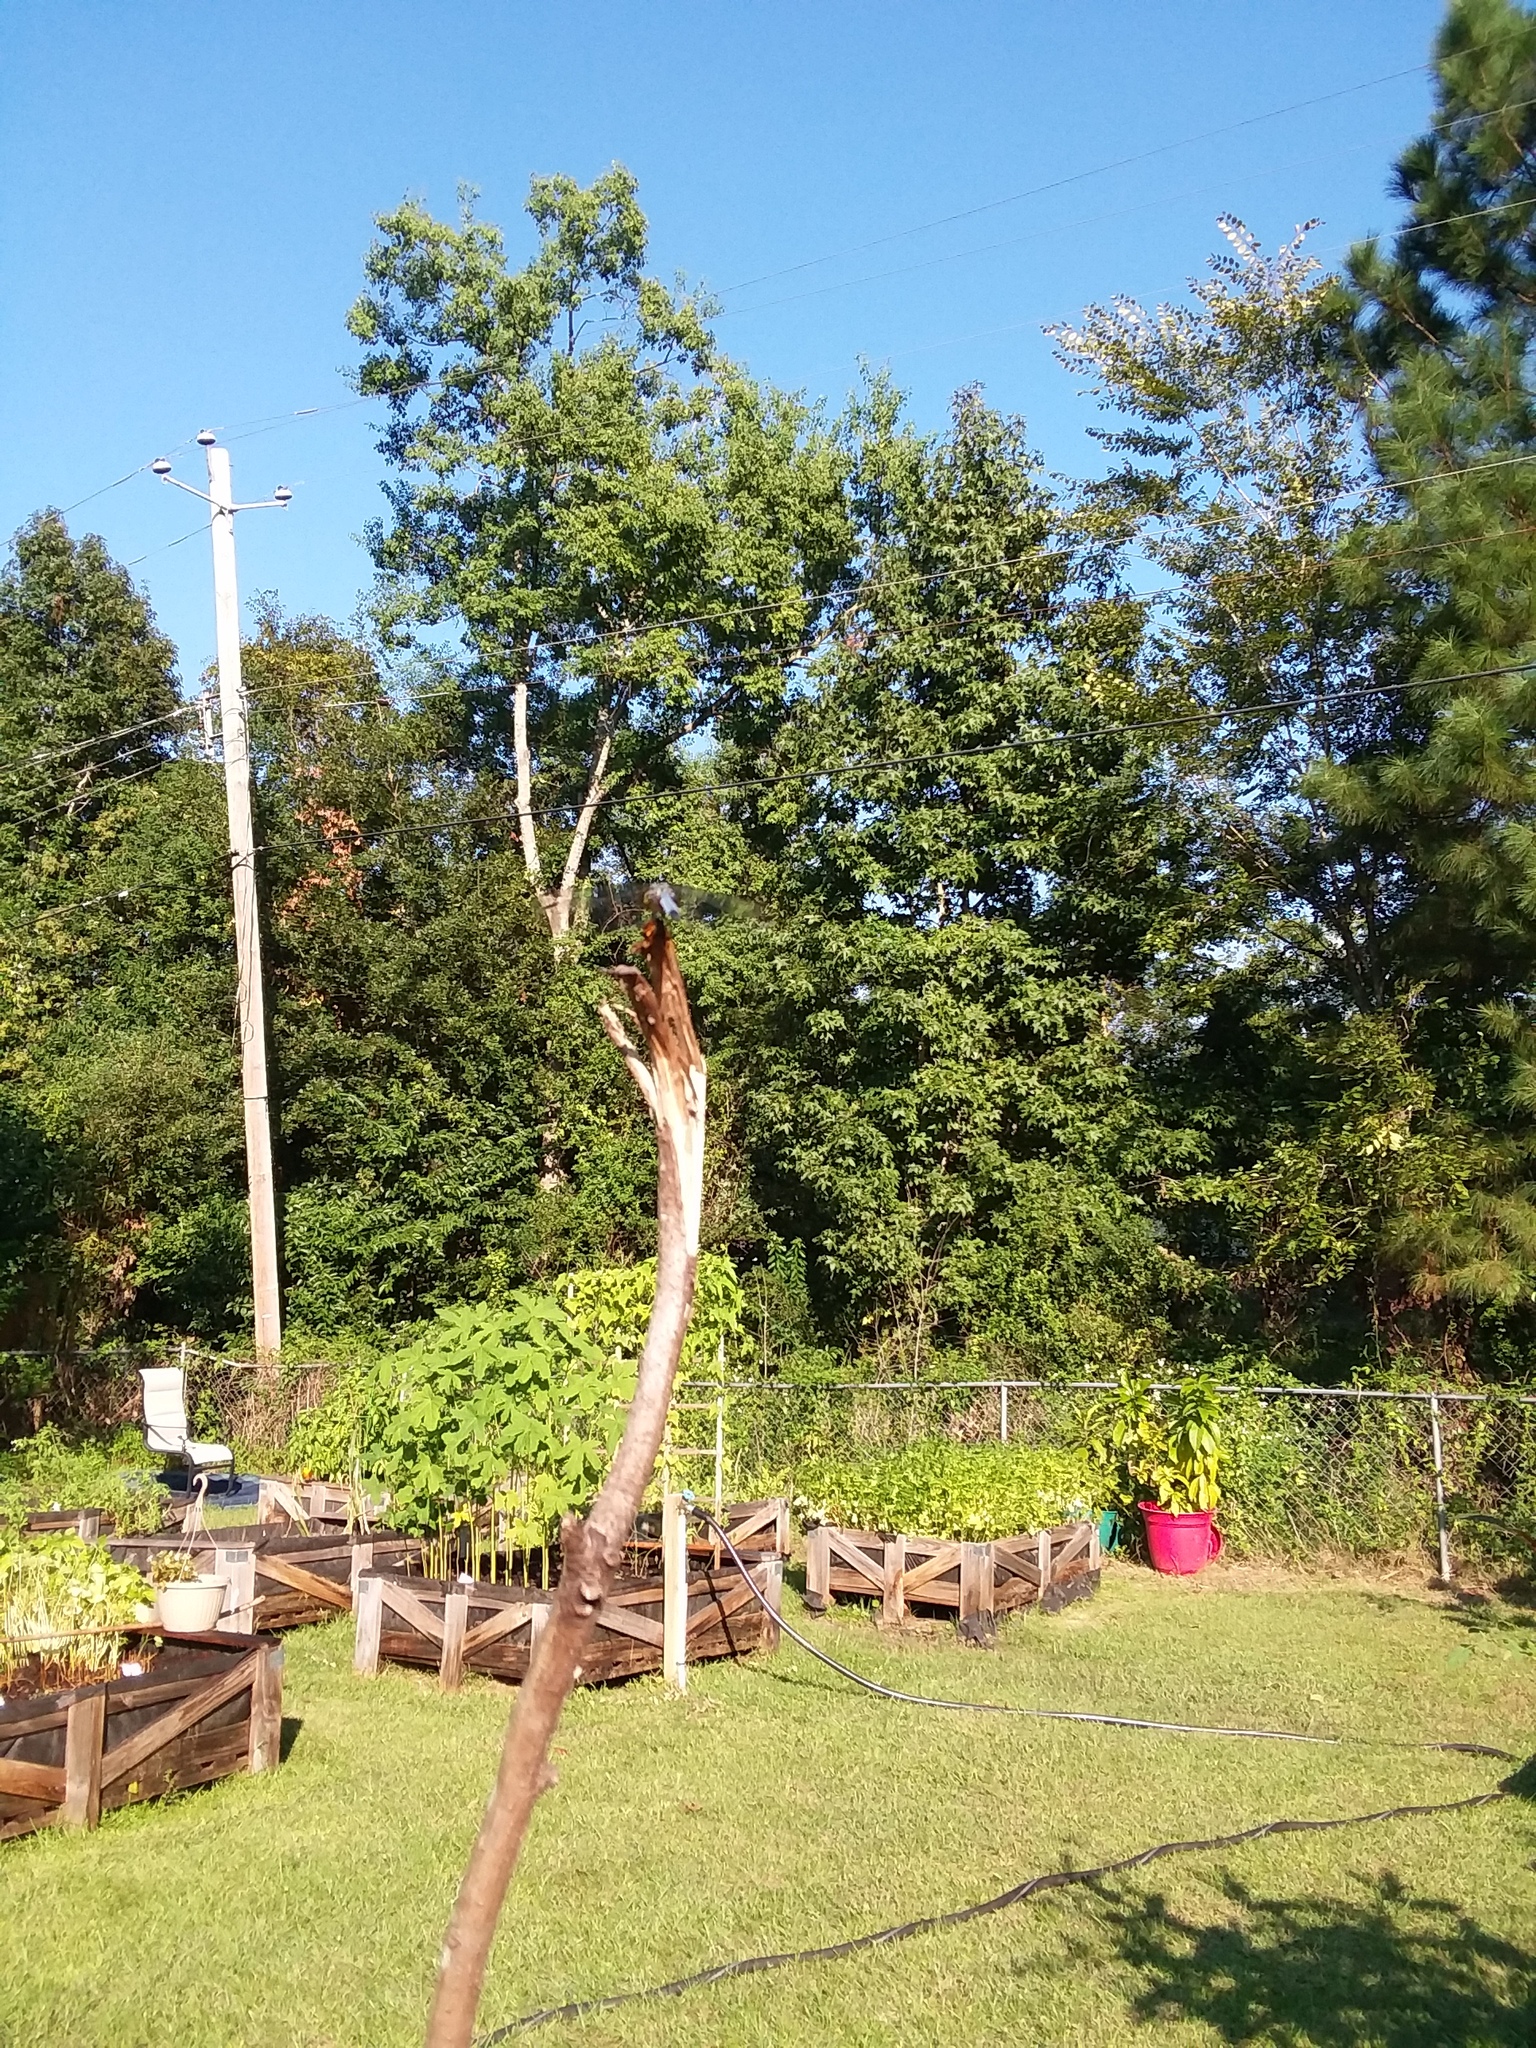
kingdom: Animalia
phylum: Arthropoda
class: Insecta
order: Odonata
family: Libellulidae
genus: Pachydiplax
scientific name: Pachydiplax longipennis
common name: Blue dasher
